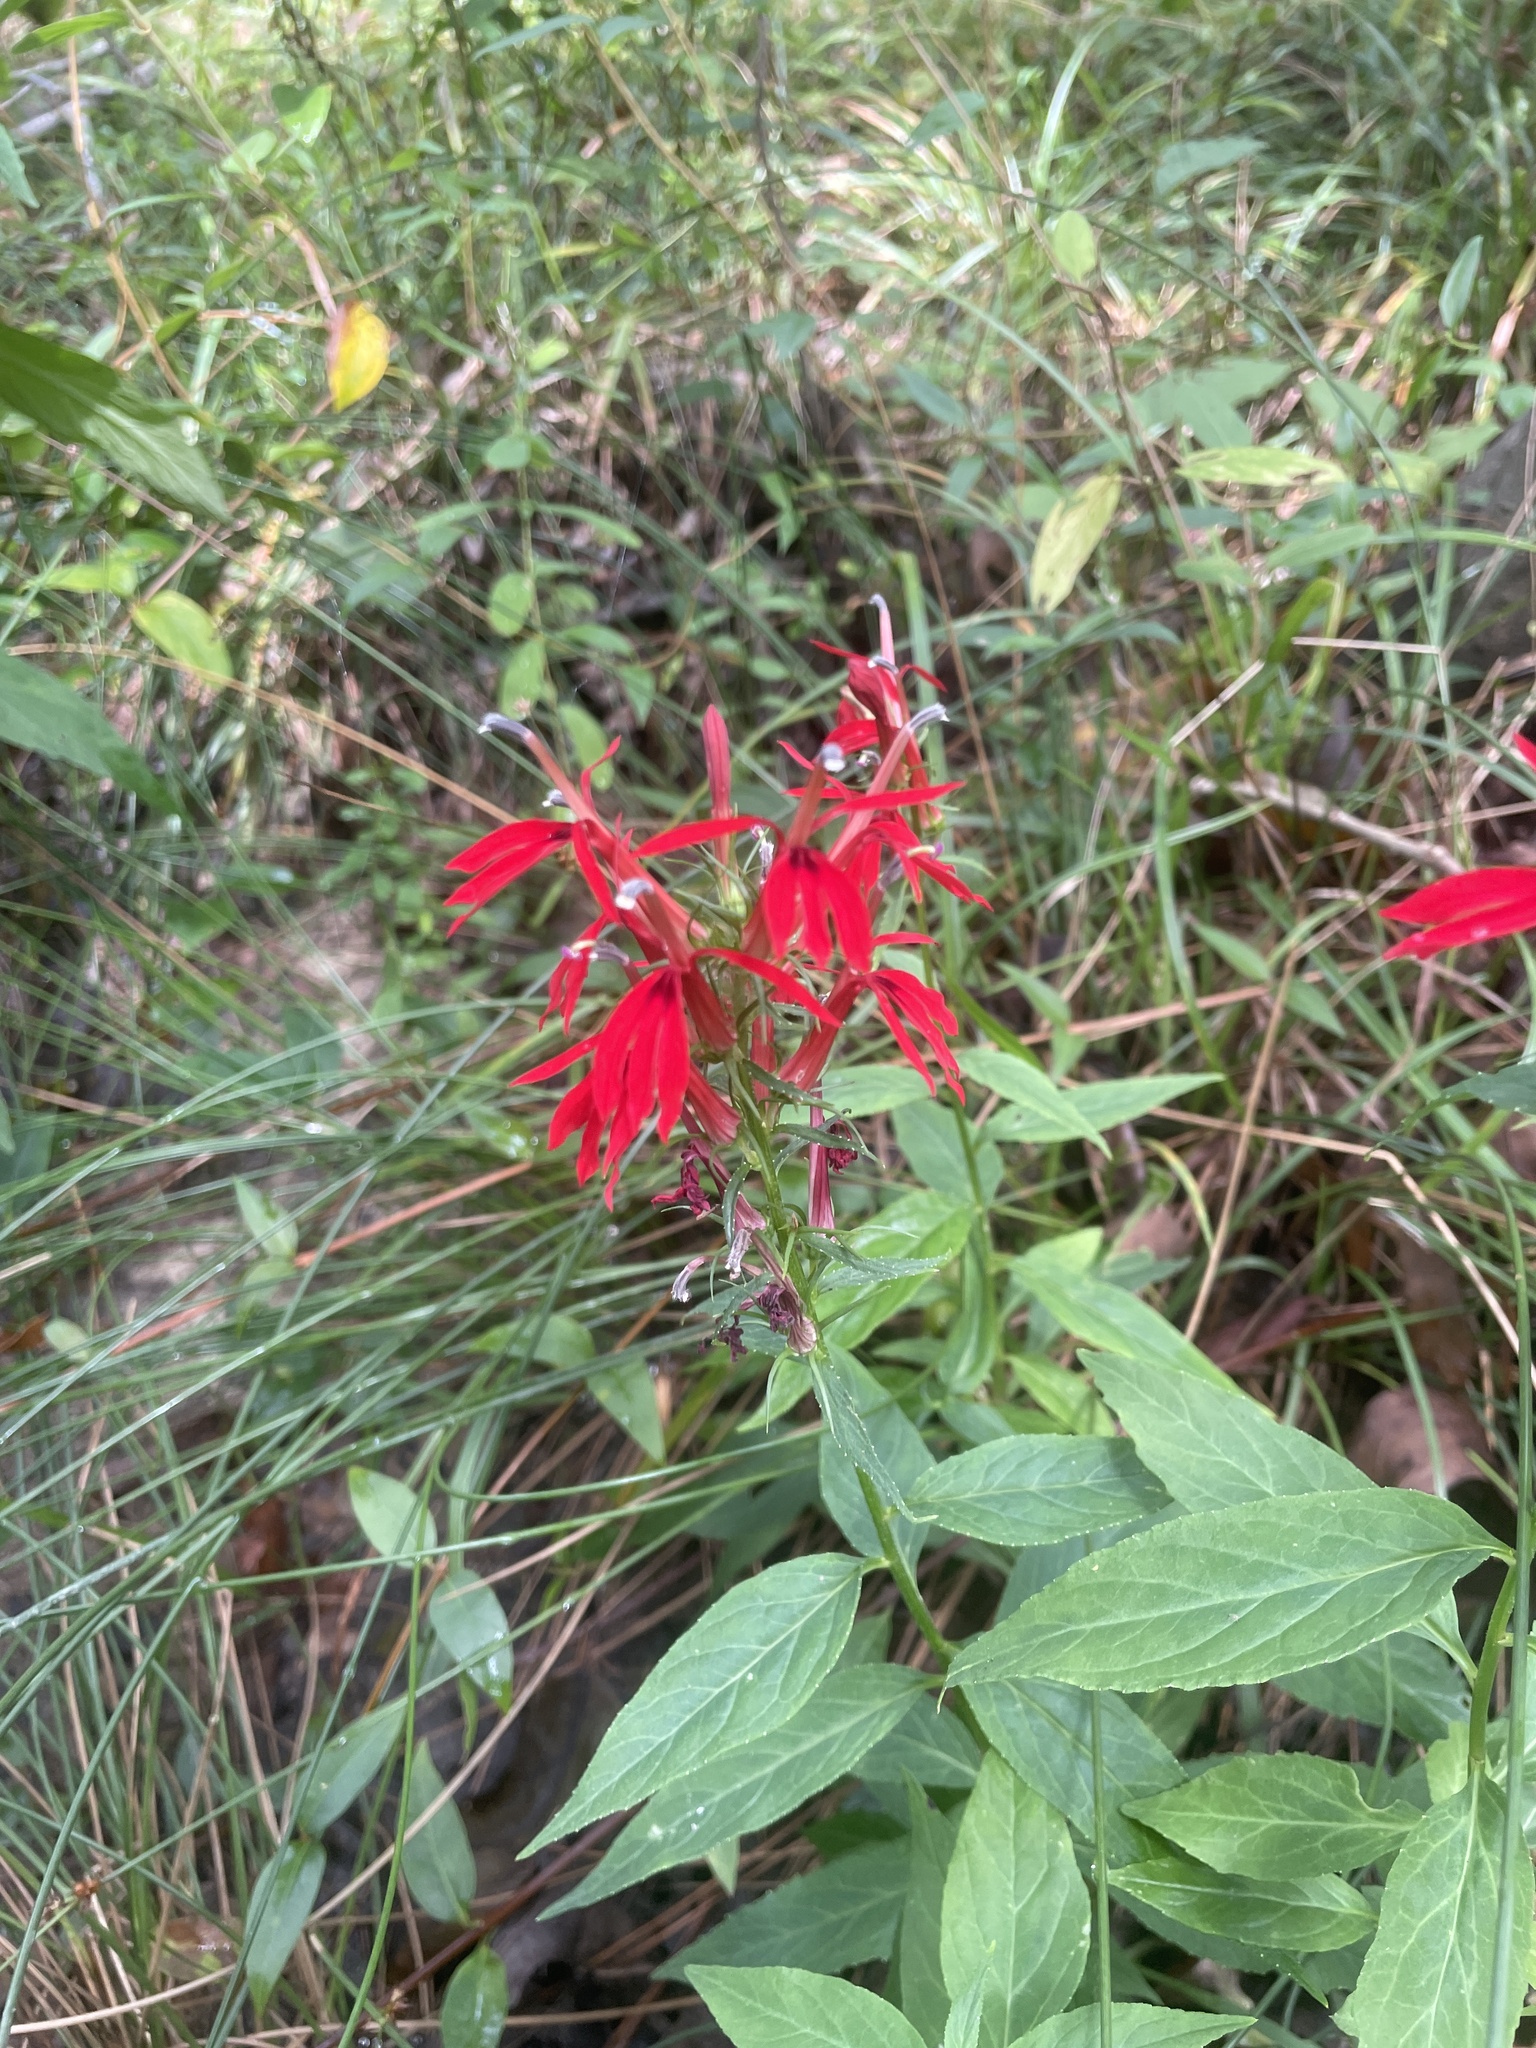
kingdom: Plantae
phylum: Tracheophyta
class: Magnoliopsida
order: Asterales
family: Campanulaceae
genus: Lobelia
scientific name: Lobelia cardinalis
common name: Cardinal flower
